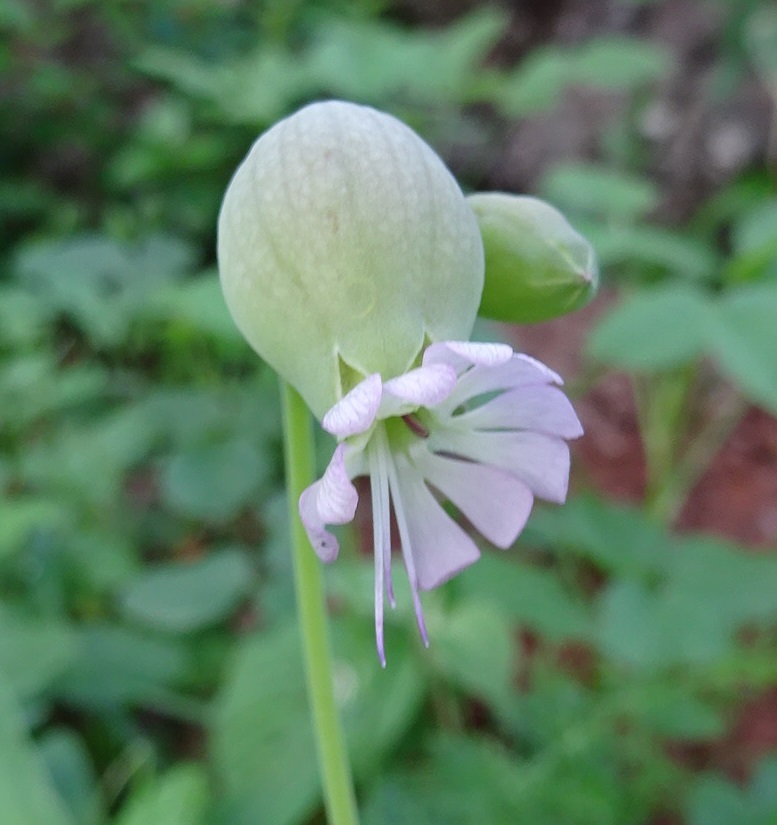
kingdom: Plantae
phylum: Tracheophyta
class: Magnoliopsida
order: Caryophyllales
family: Caryophyllaceae
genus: Silene
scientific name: Silene vulgaris
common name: Bladder campion
